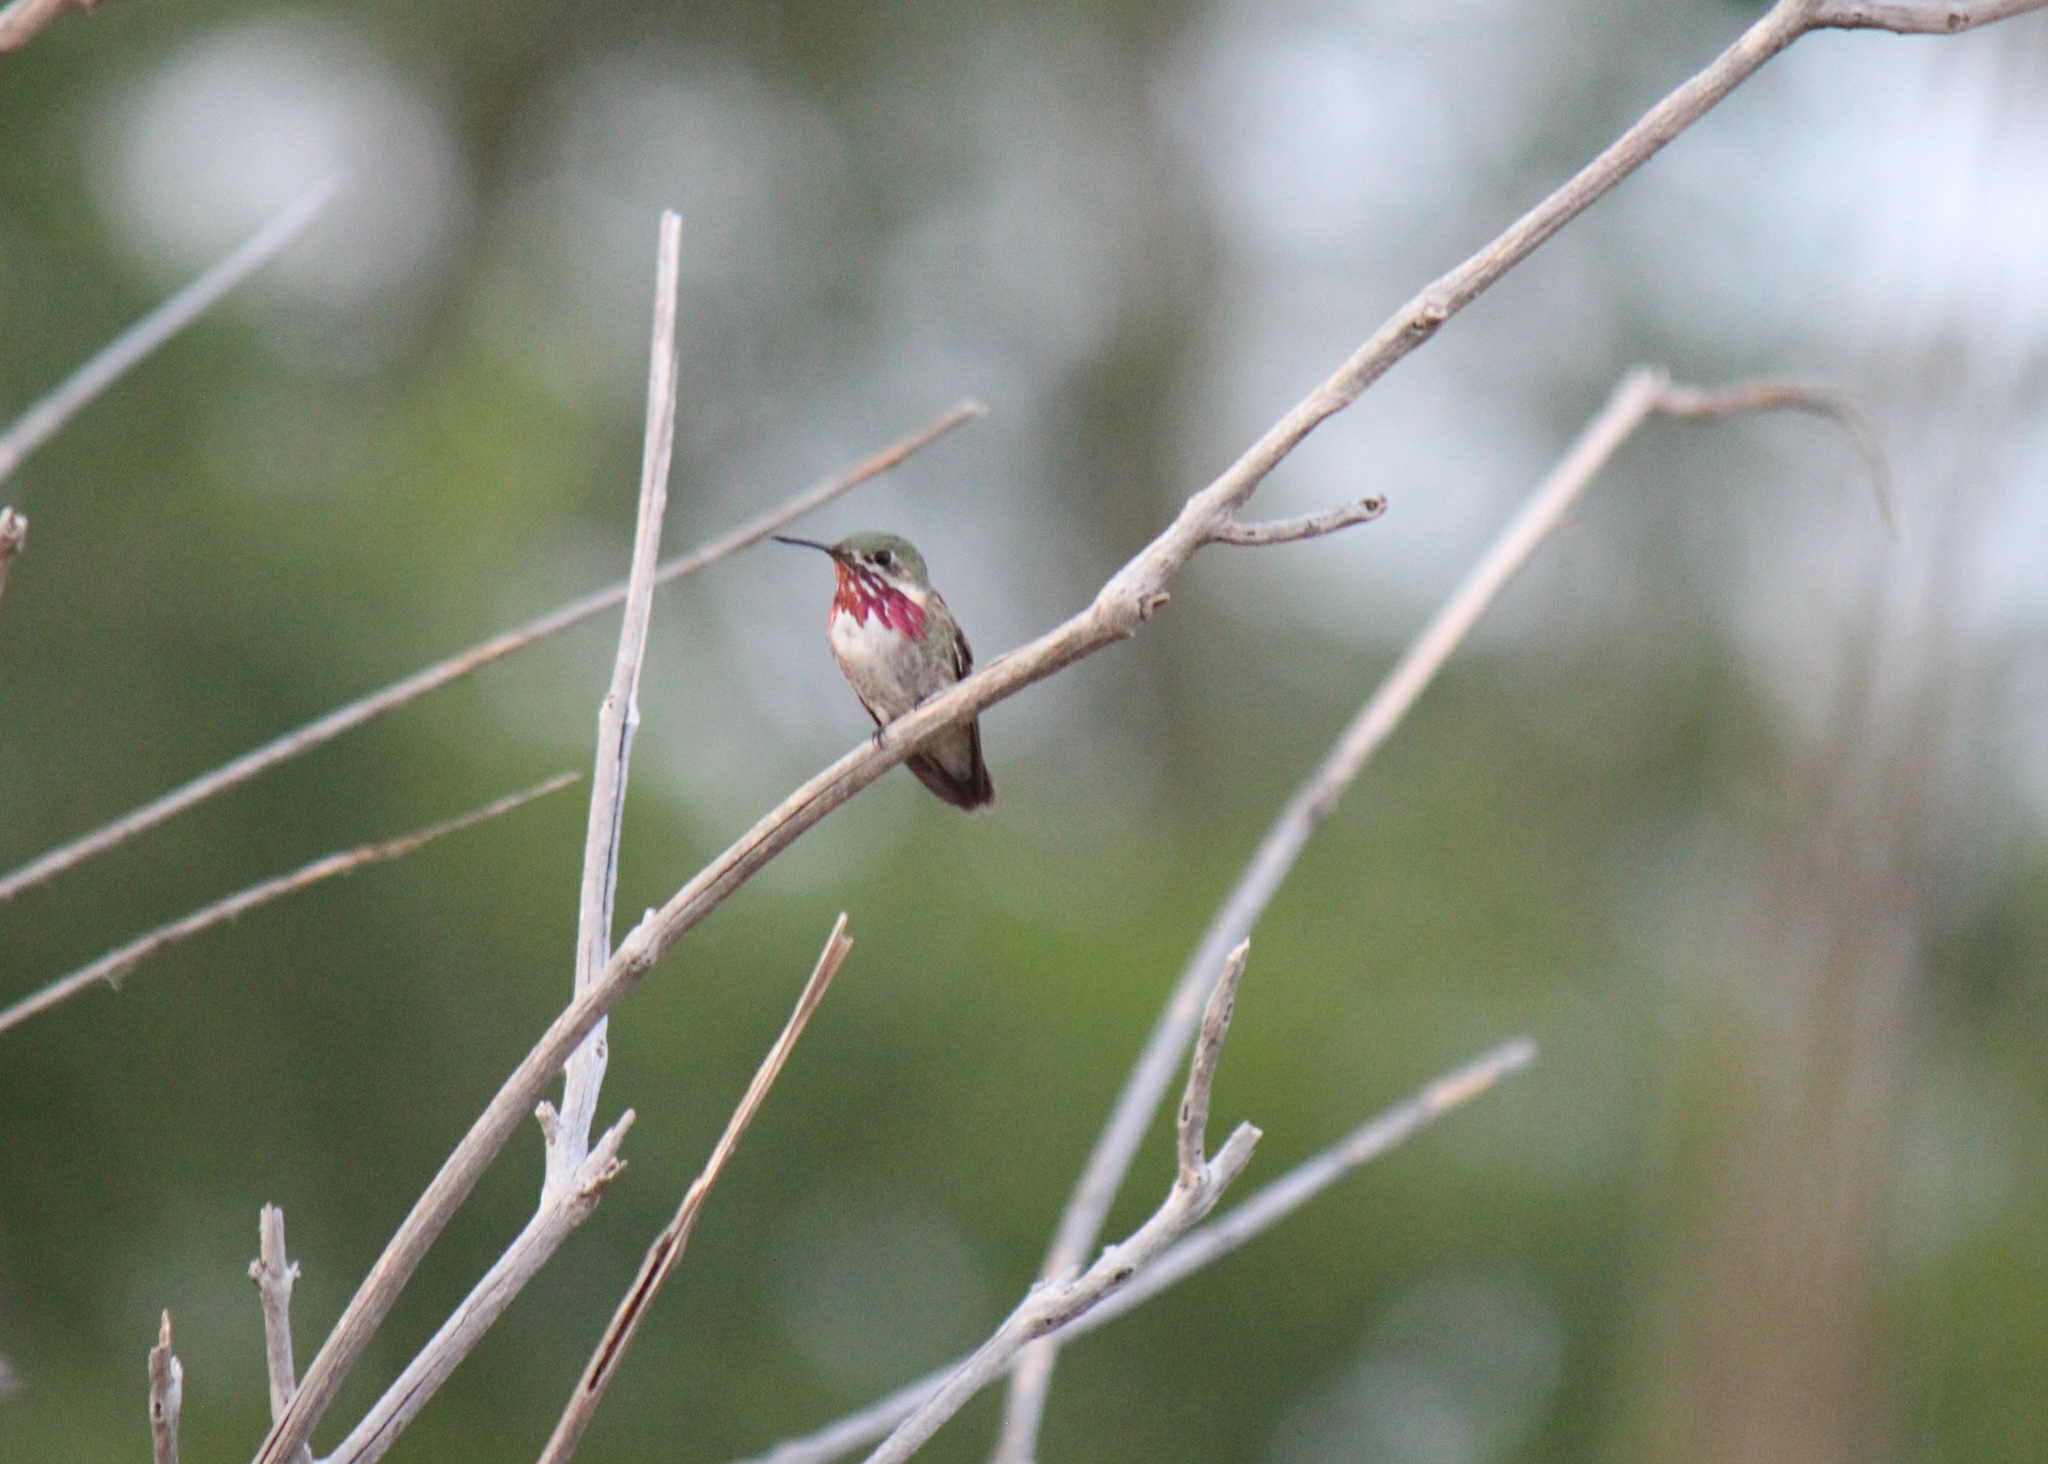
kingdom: Animalia
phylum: Chordata
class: Aves
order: Apodiformes
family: Trochilidae
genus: Selasphorus
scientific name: Selasphorus calliope
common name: Calliope hummingbird
